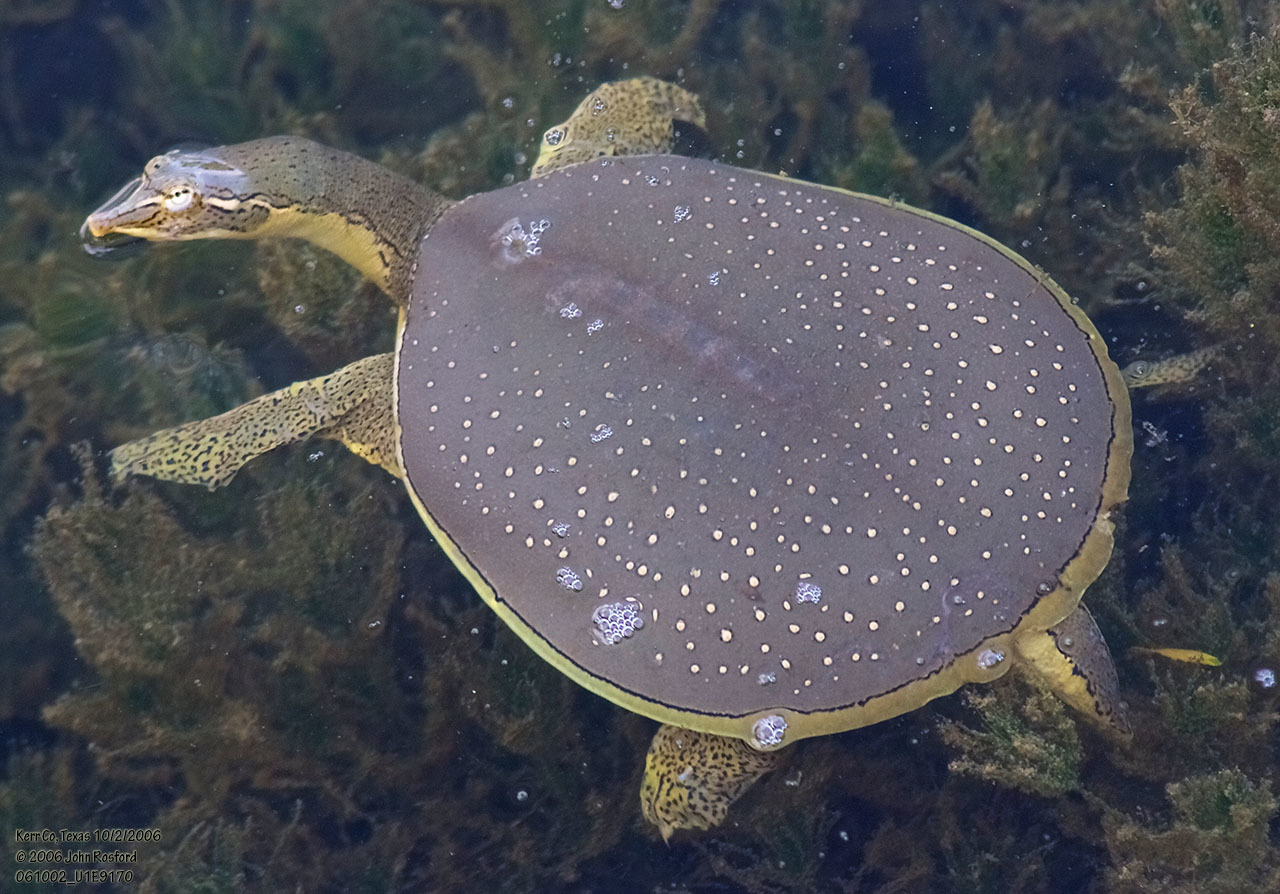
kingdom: Animalia
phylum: Chordata
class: Testudines
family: Trionychidae
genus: Apalone
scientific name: Apalone spinifera
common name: Spiny softshell turtle
